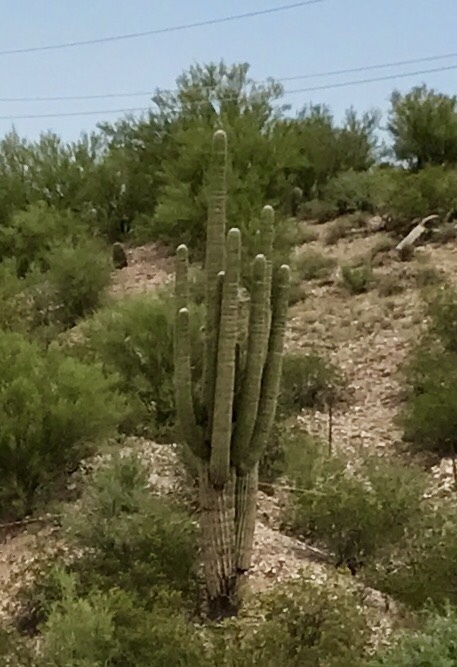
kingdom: Plantae
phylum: Tracheophyta
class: Magnoliopsida
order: Caryophyllales
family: Cactaceae
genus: Carnegiea
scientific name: Carnegiea gigantea
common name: Saguaro
